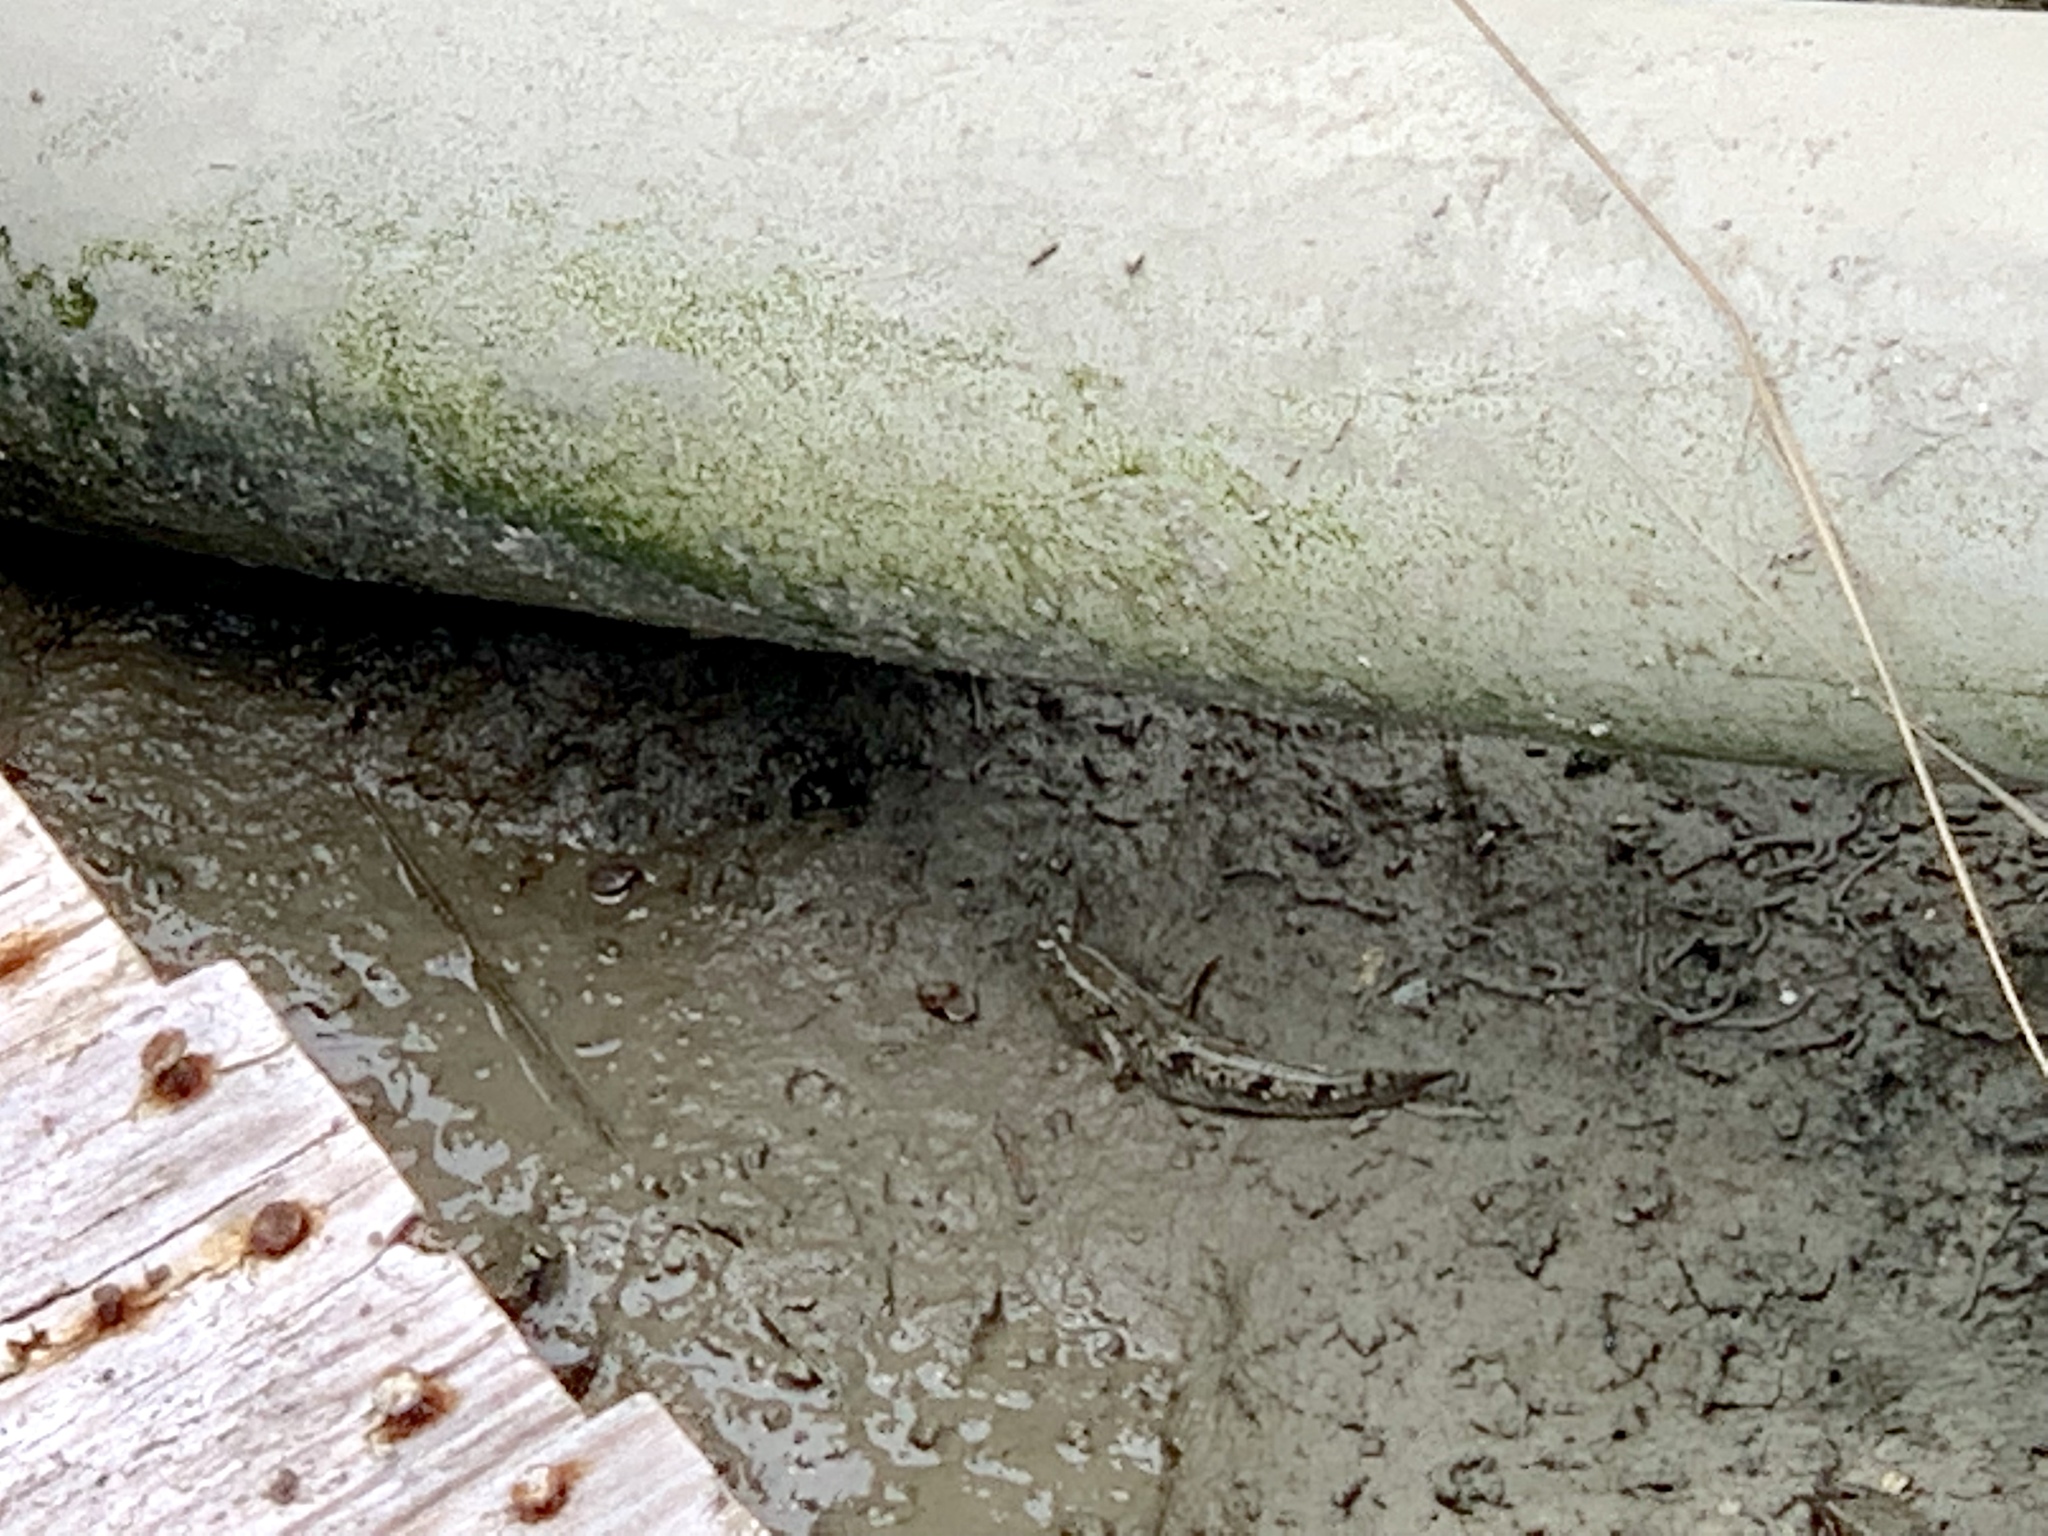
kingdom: Animalia
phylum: Chordata
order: Perciformes
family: Gobiidae
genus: Periophthalmus
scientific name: Periophthalmus modestus
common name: Black goby
